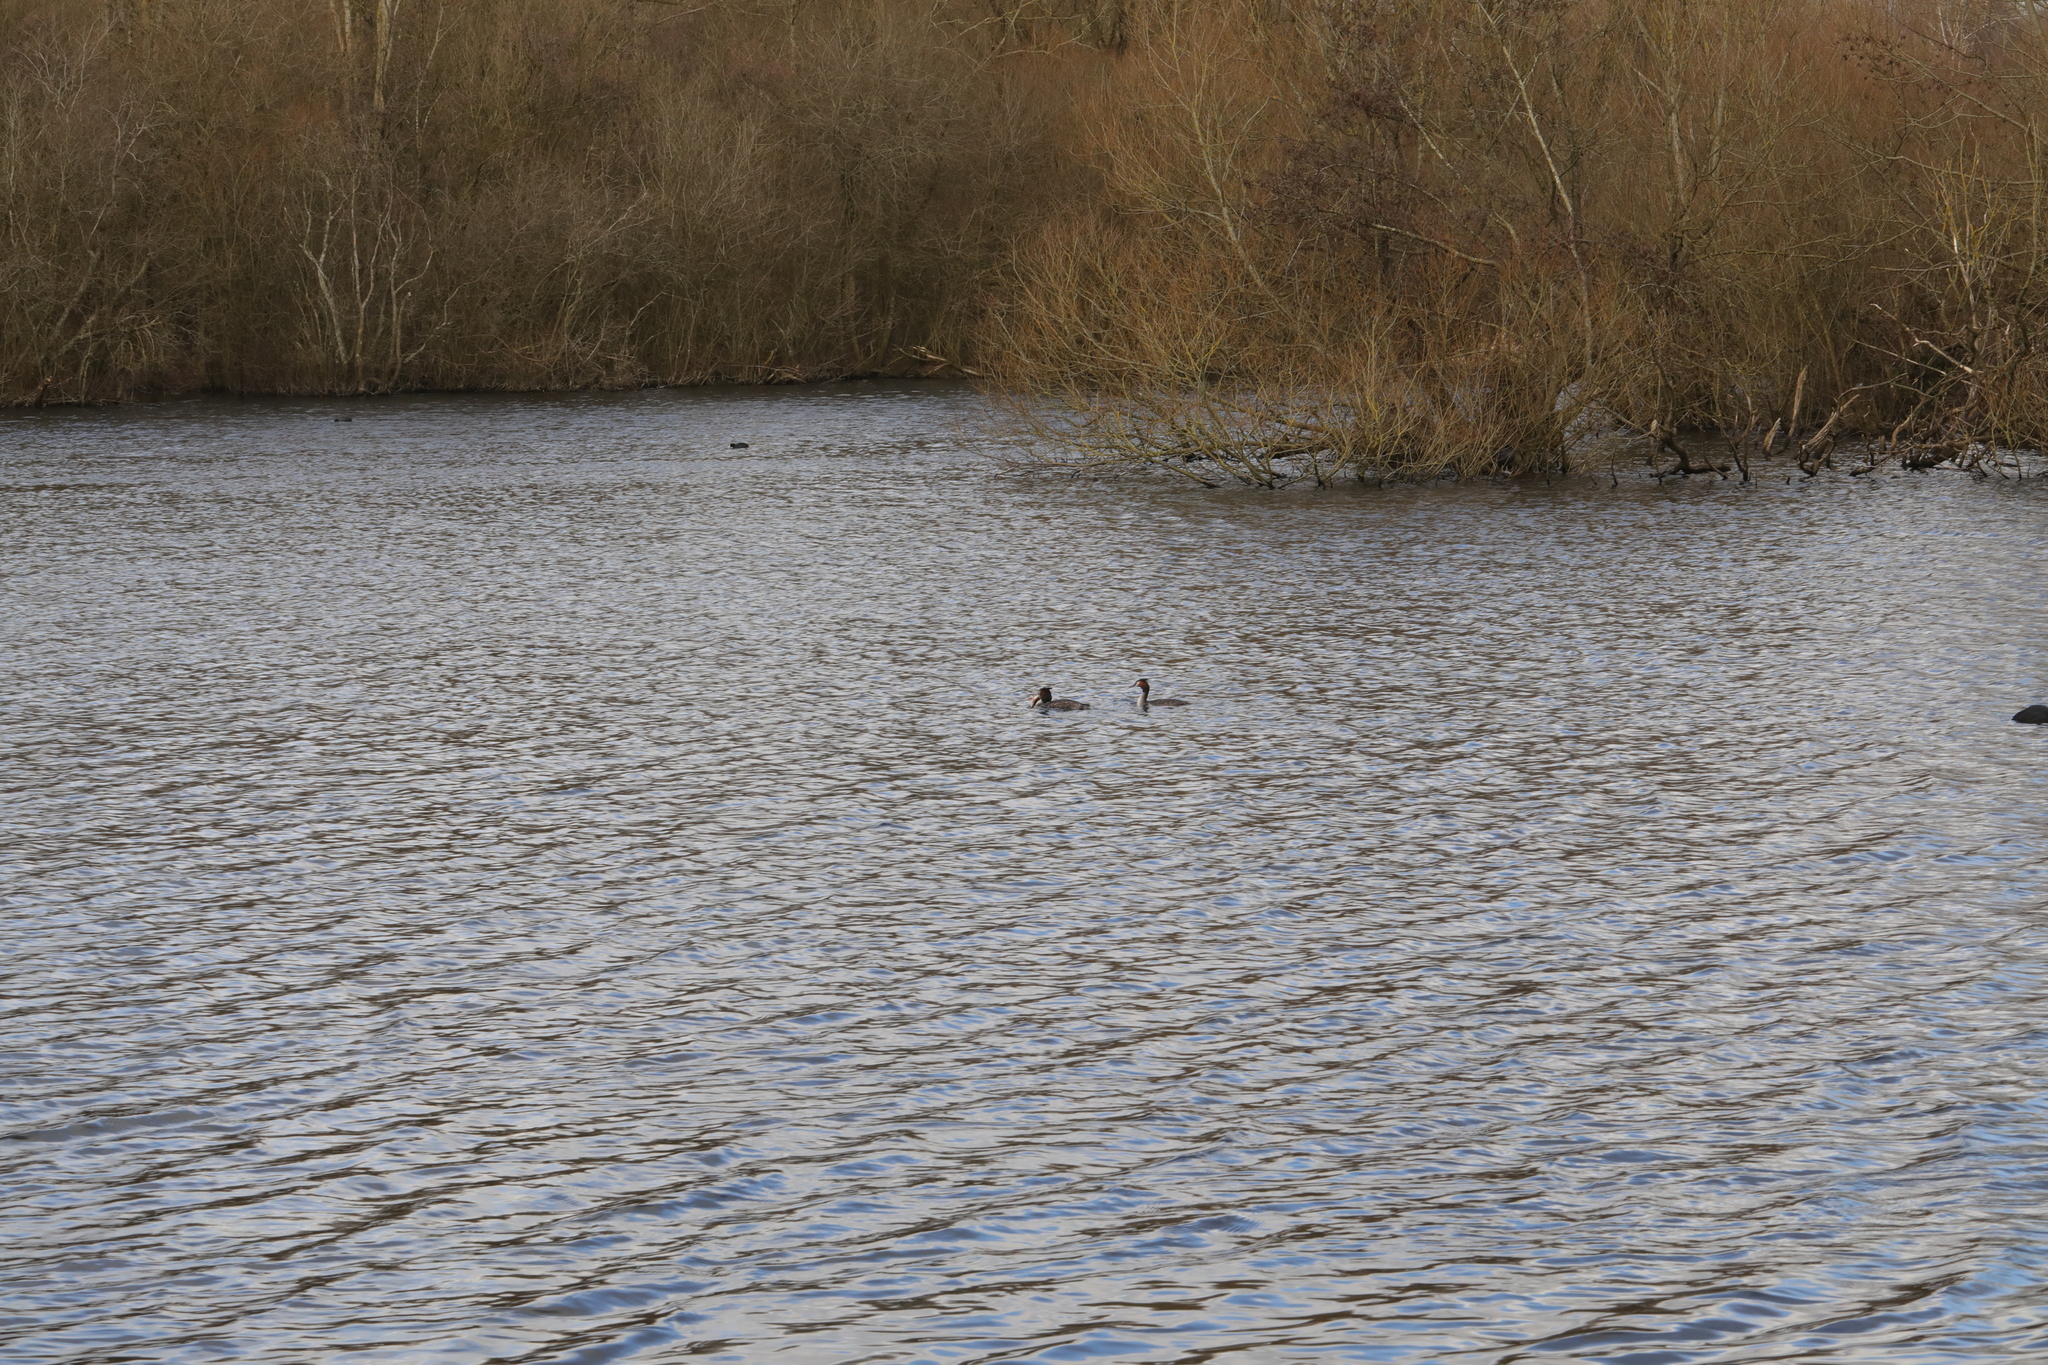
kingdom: Animalia
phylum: Chordata
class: Aves
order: Podicipediformes
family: Podicipedidae
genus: Podiceps
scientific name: Podiceps cristatus
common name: Great crested grebe
